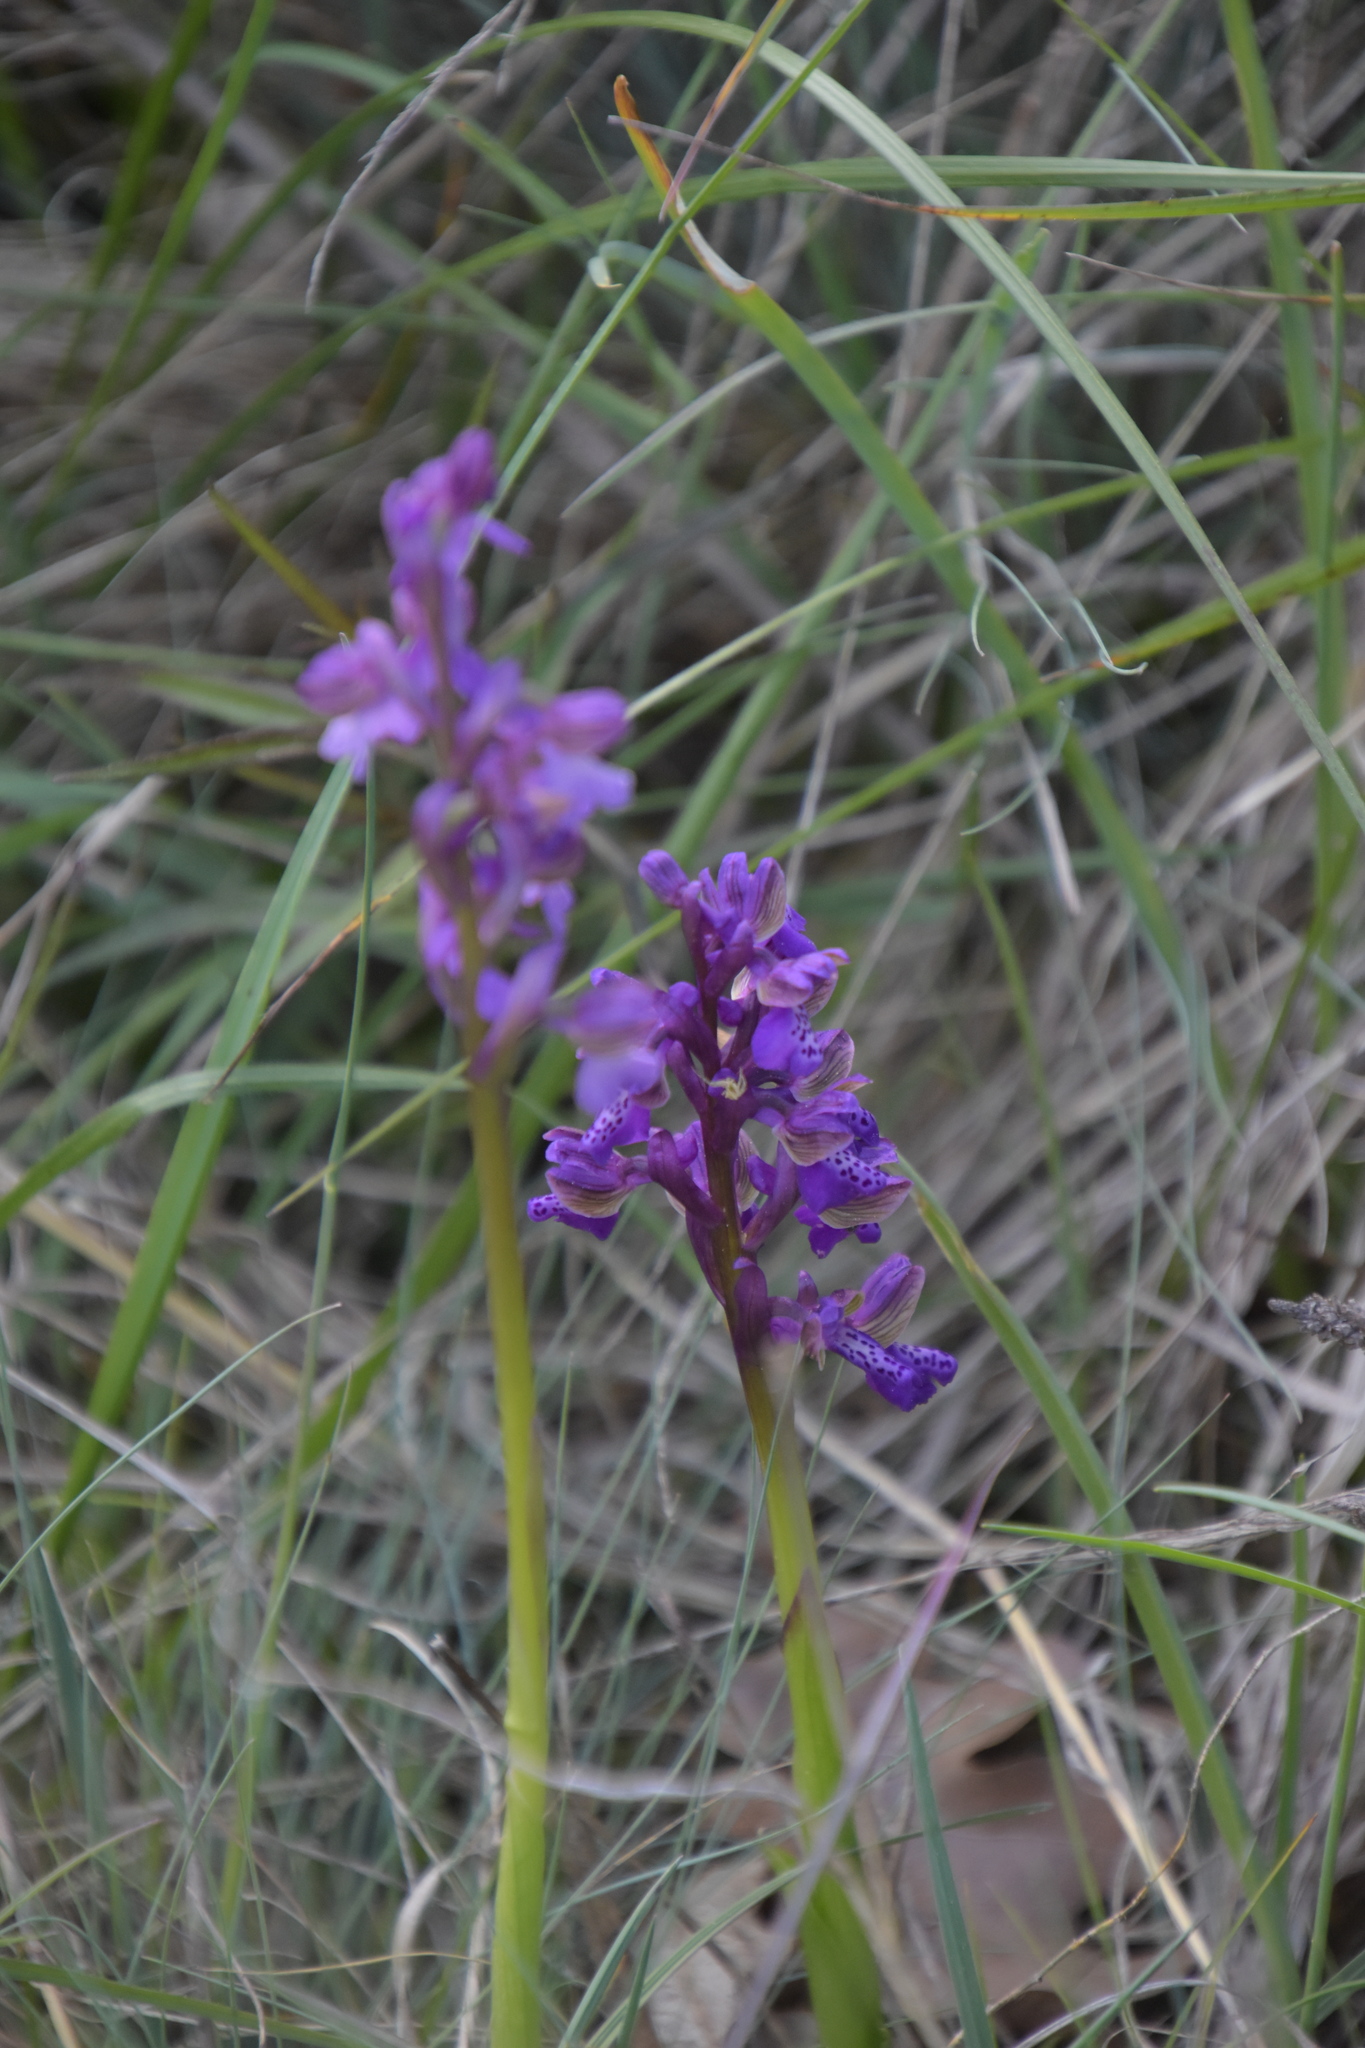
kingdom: Plantae
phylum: Tracheophyta
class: Liliopsida
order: Asparagales
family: Orchidaceae
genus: Anacamptis
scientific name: Anacamptis morio
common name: Green-winged orchid
